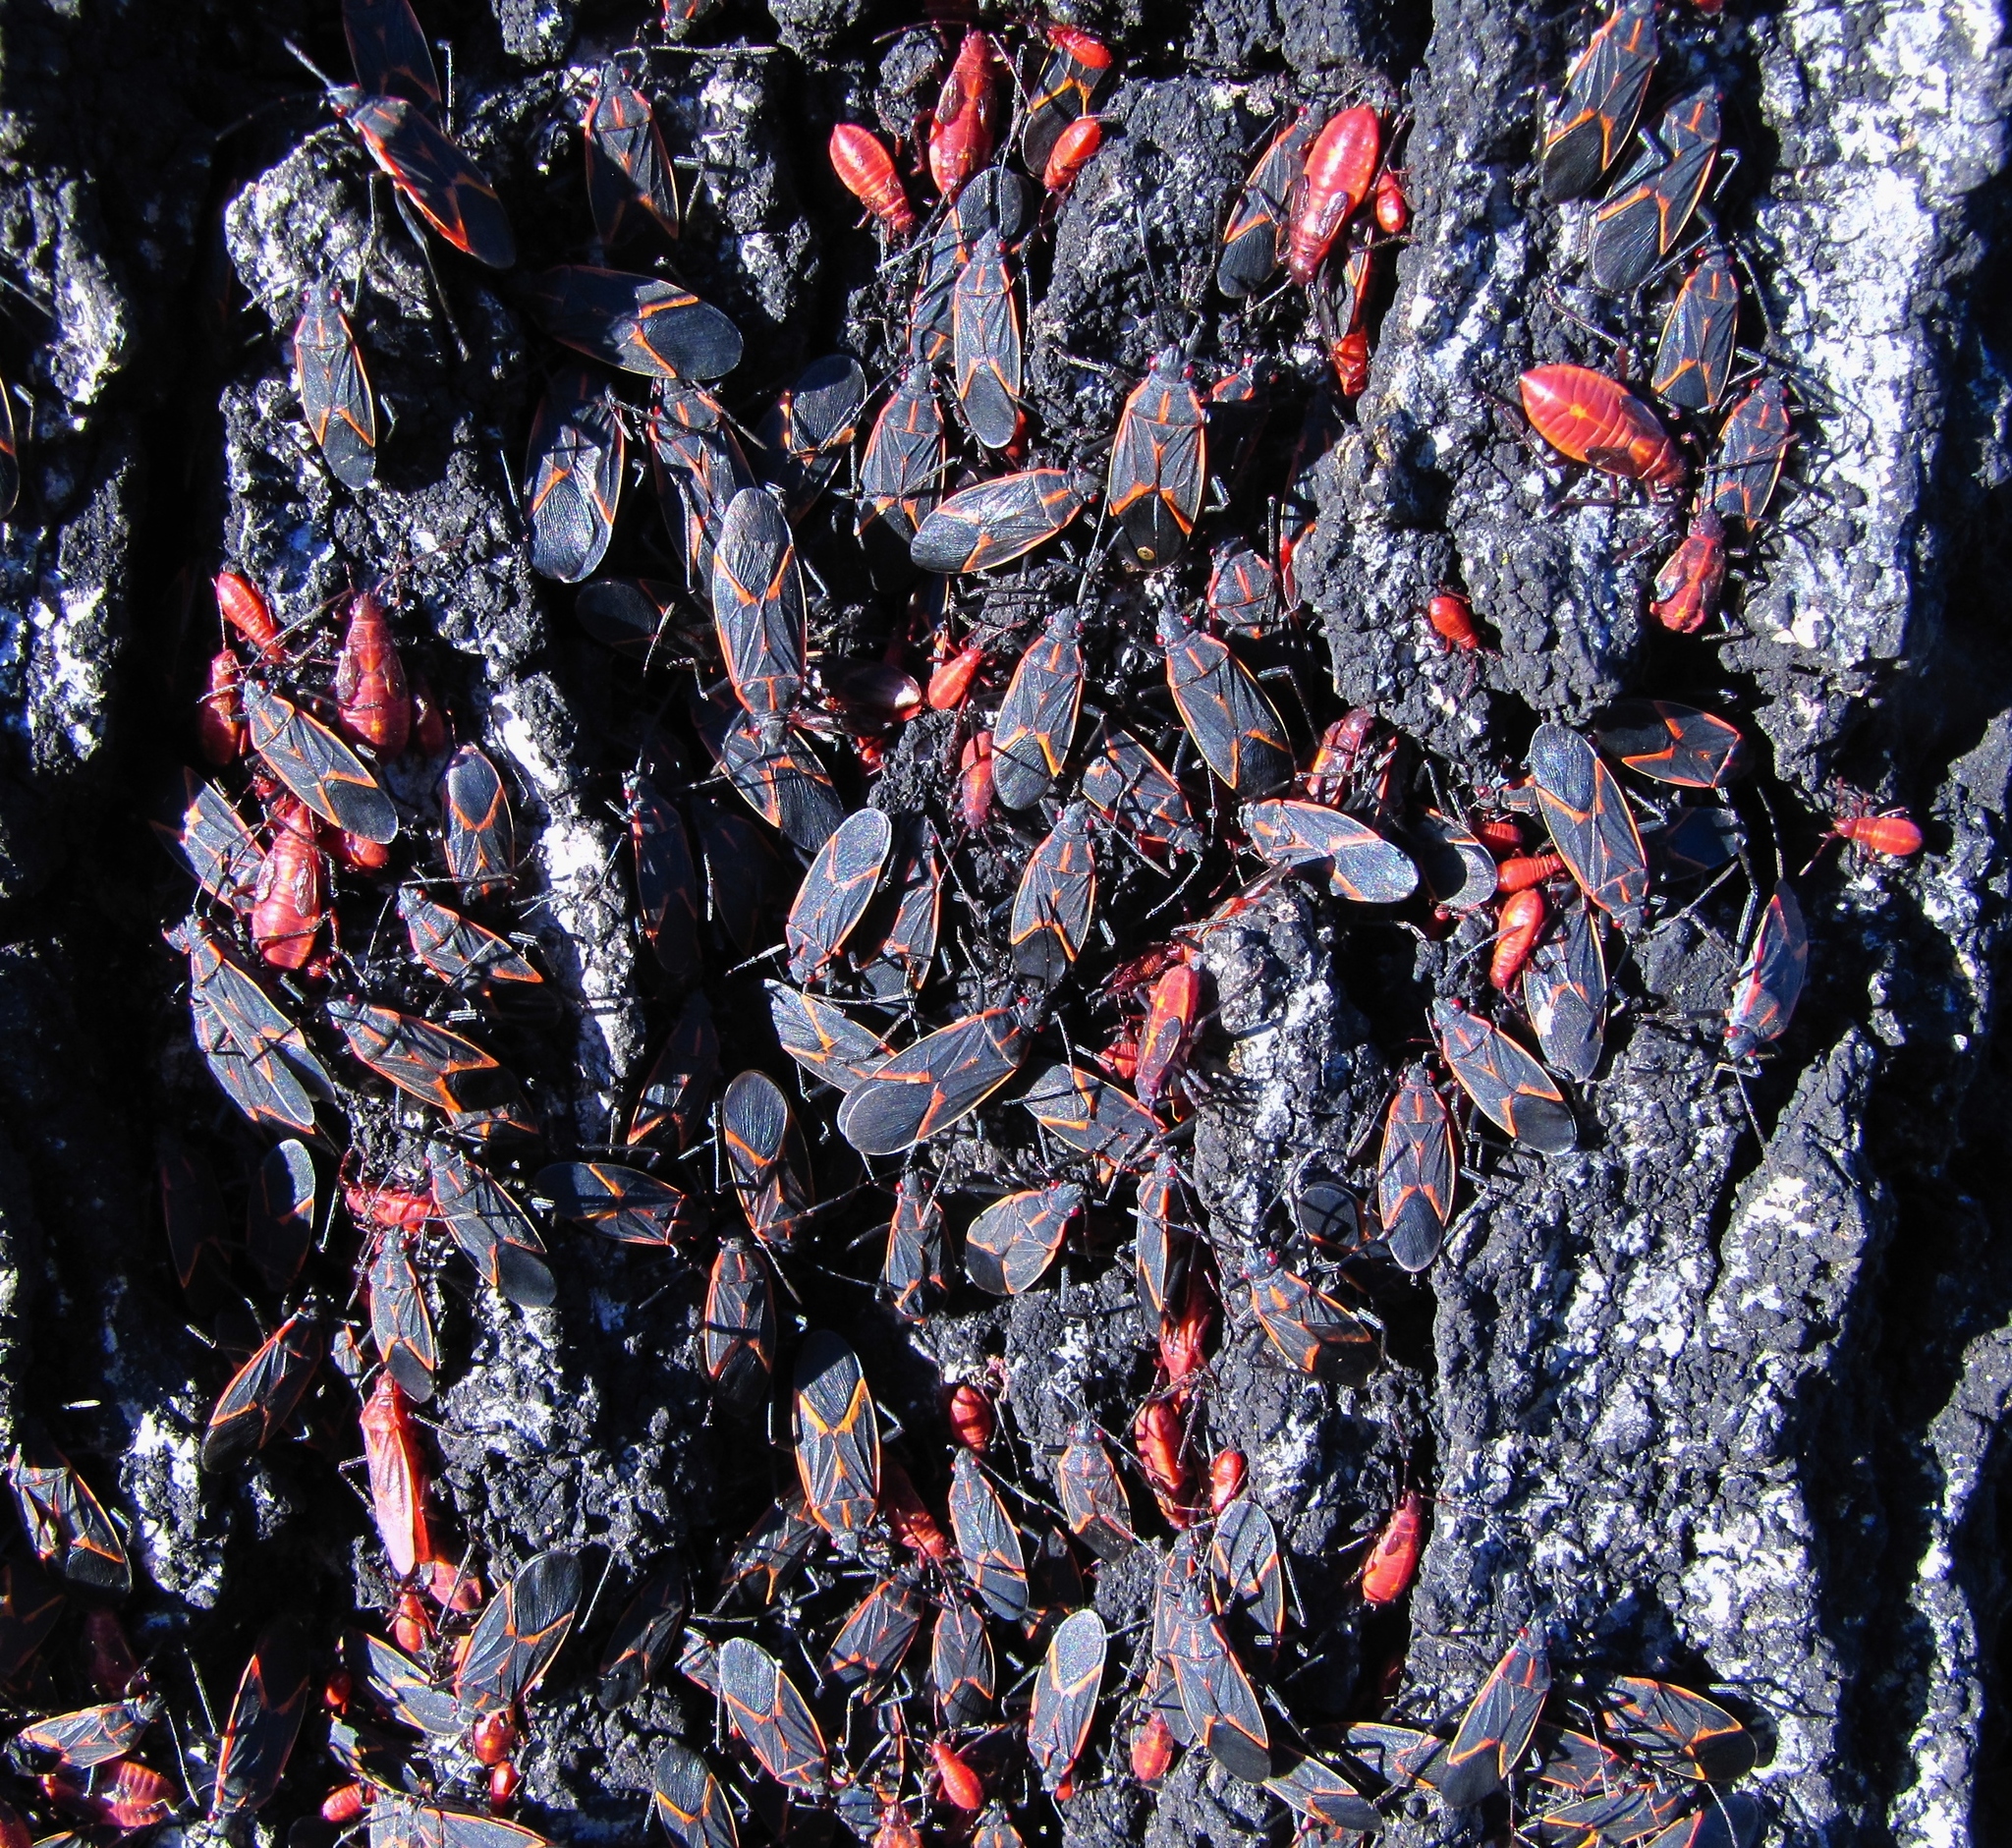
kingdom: Animalia
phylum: Arthropoda
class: Insecta
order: Hemiptera
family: Rhopalidae
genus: Boisea
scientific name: Boisea trivittata
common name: Boxelder bug
